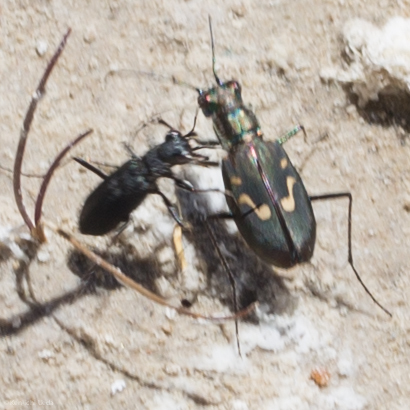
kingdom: Animalia
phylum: Arthropoda
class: Insecta
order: Coleoptera
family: Carabidae
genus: Cicindela
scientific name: Cicindela hemorrhagica
